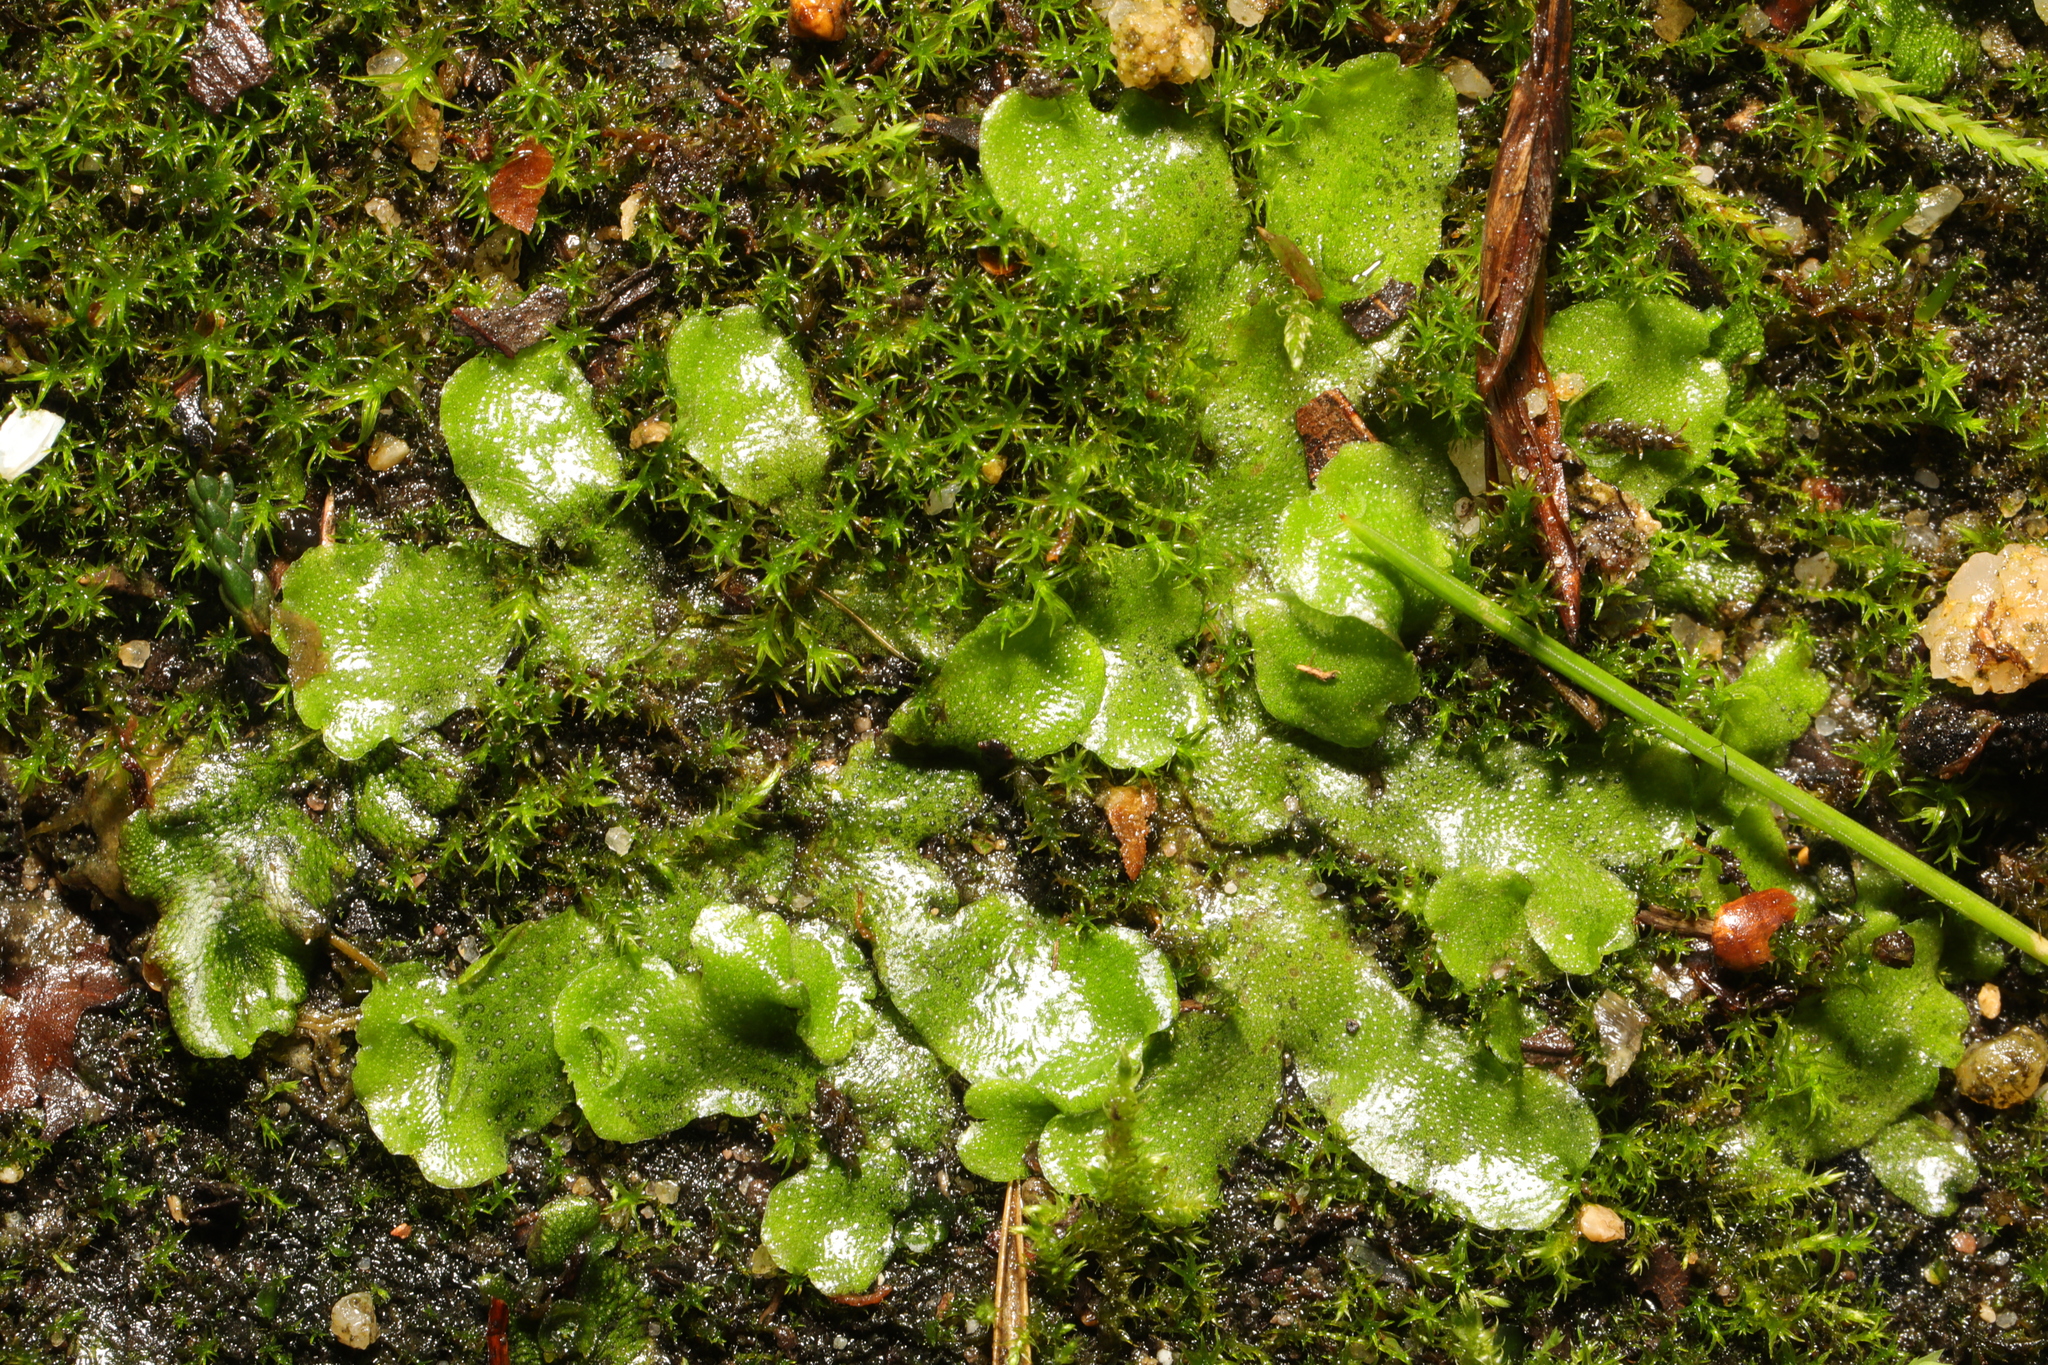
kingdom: Plantae
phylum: Marchantiophyta
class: Marchantiopsida
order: Lunulariales
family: Lunulariaceae
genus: Lunularia
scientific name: Lunularia cruciata
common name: Crescent-cup liverwort
